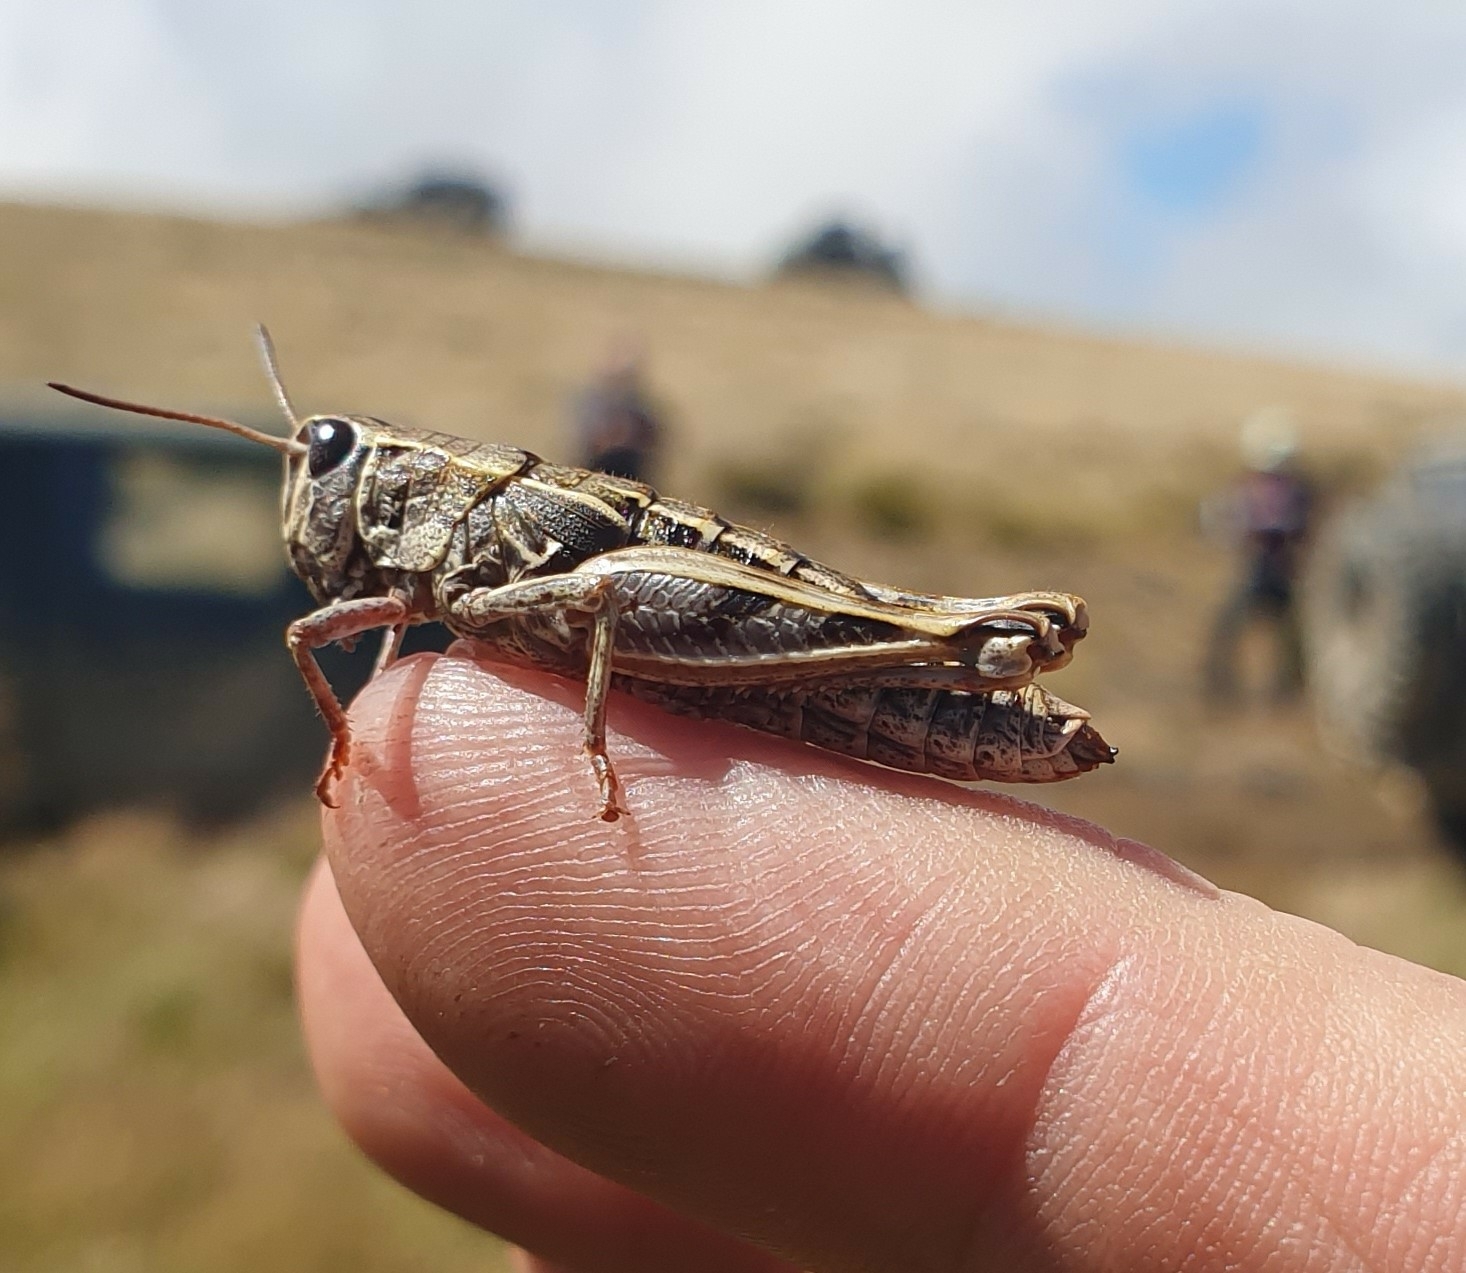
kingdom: Animalia
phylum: Arthropoda
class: Insecta
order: Orthoptera
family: Acrididae
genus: Sigaus
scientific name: Sigaus australis
